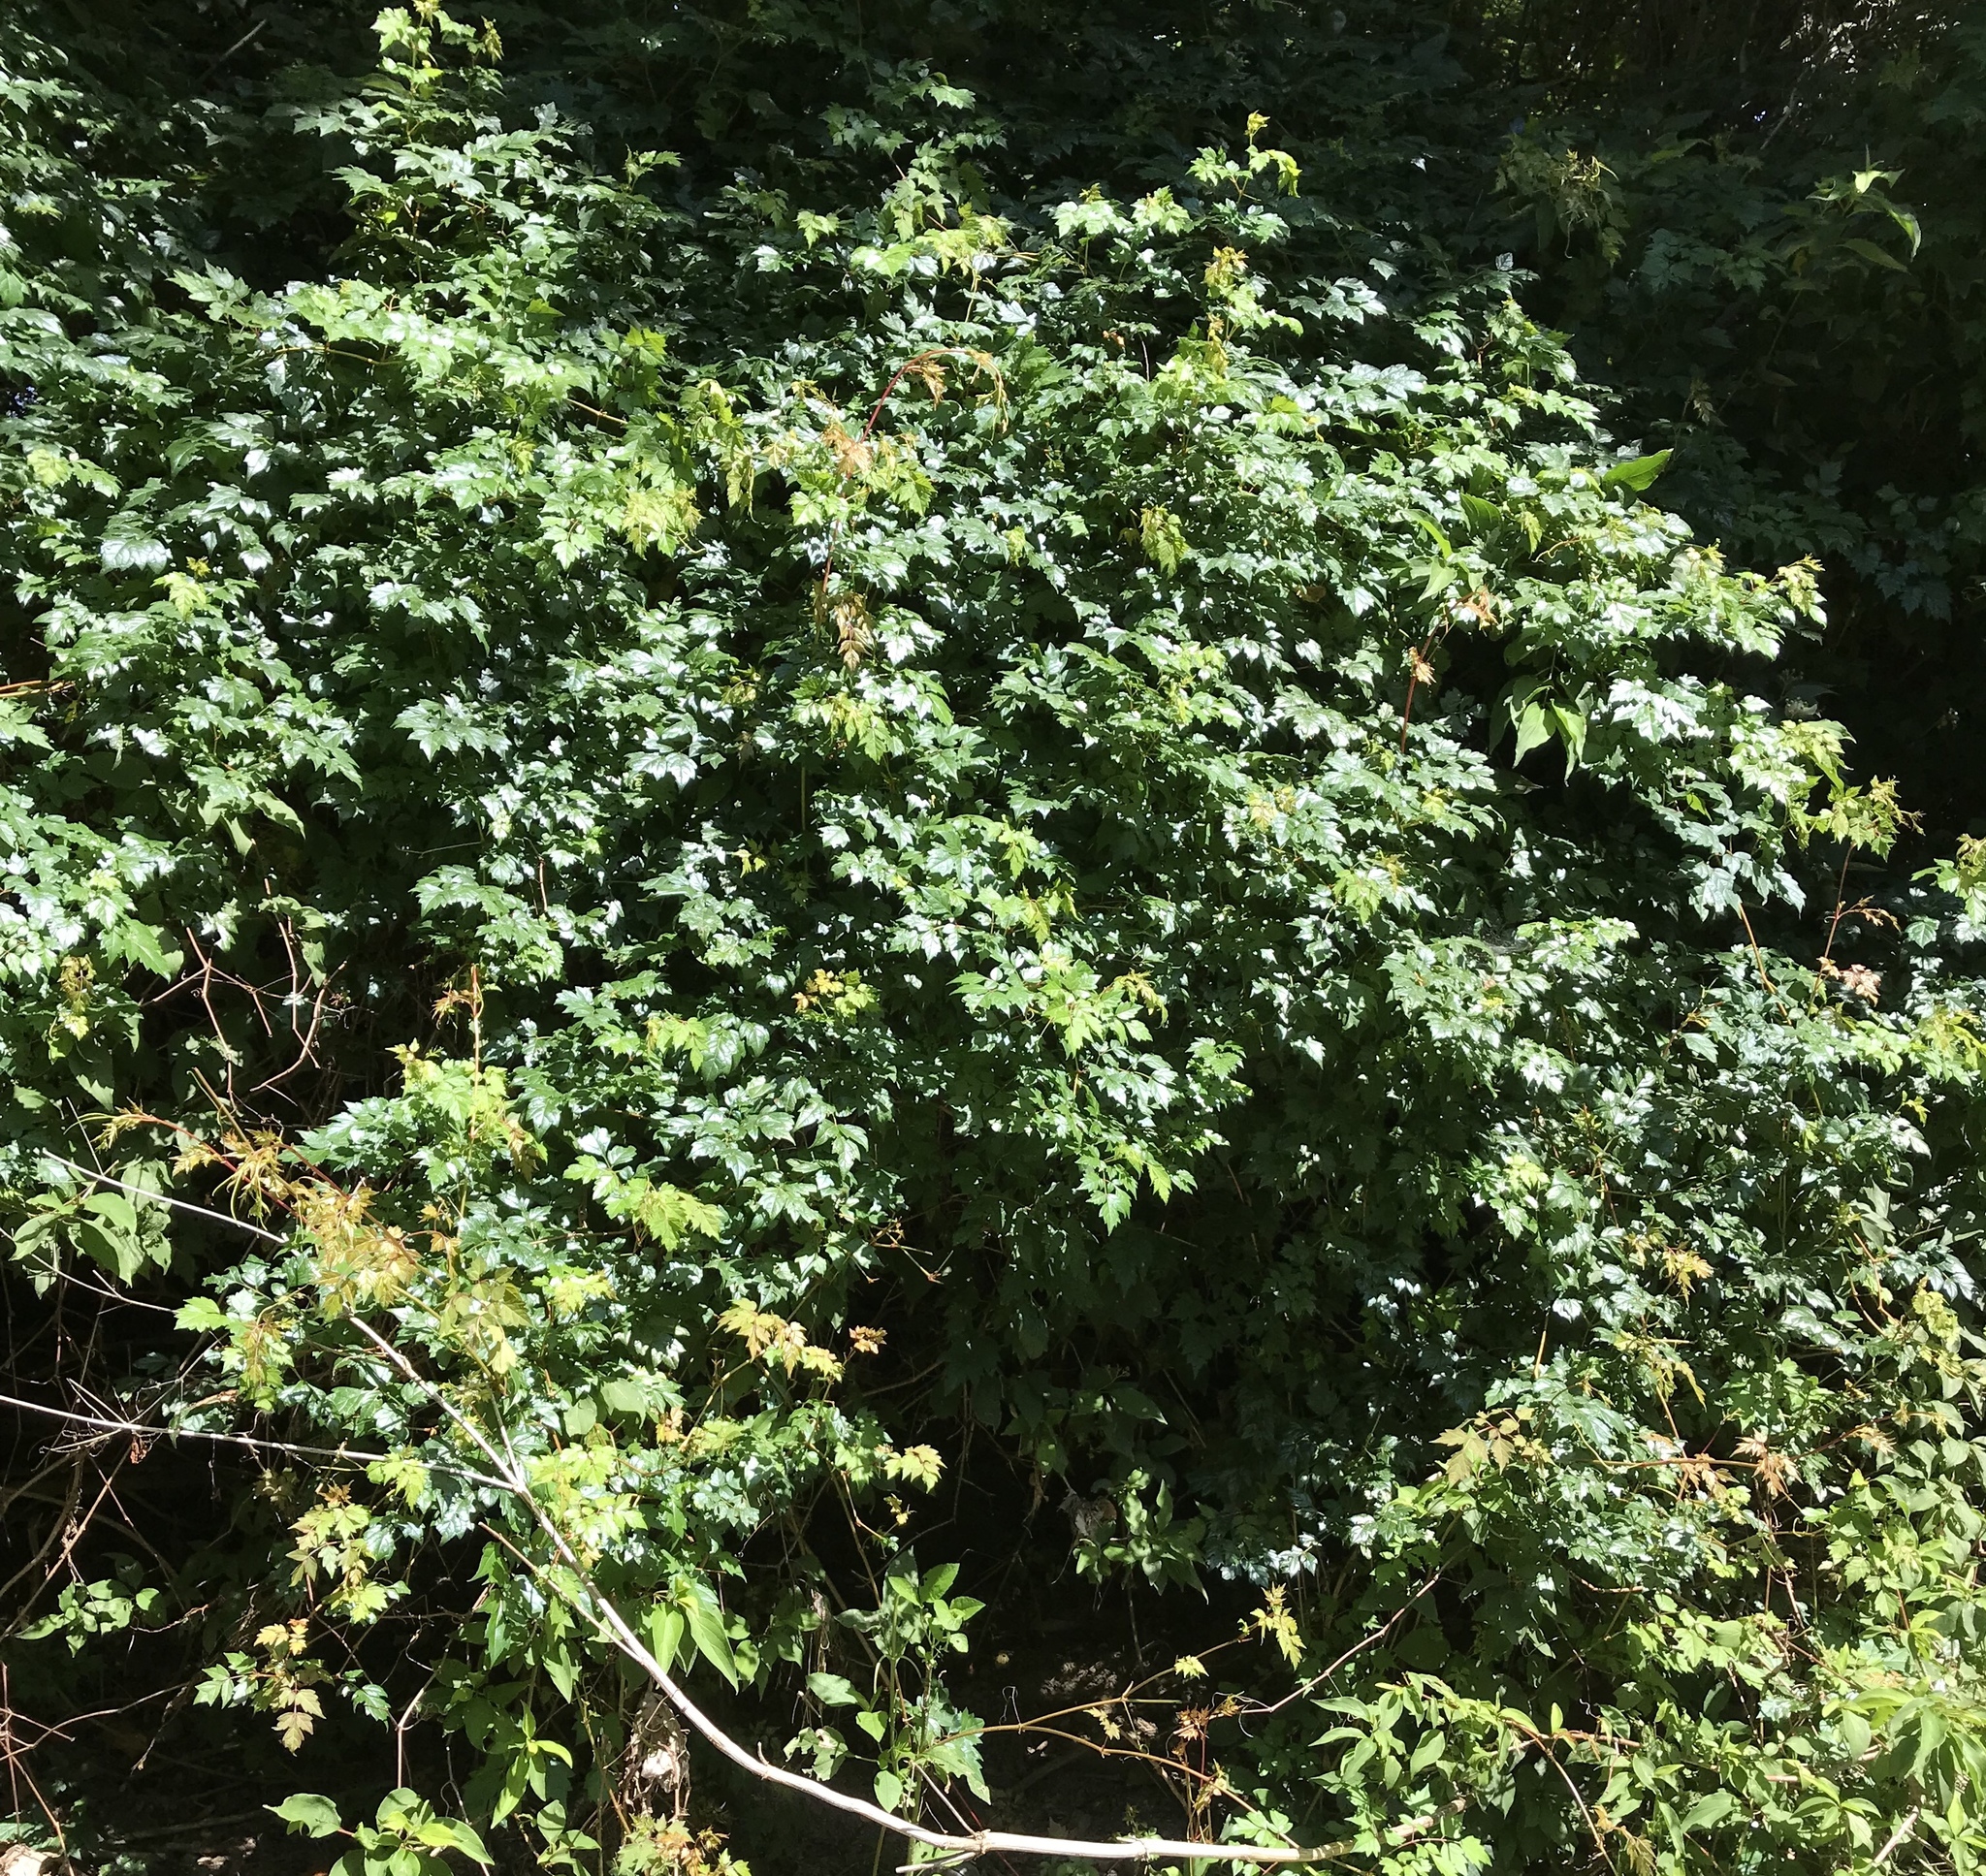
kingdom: Plantae
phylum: Tracheophyta
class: Magnoliopsida
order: Vitales
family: Vitaceae
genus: Nekemias
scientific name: Nekemias arborea
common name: Peppervine
